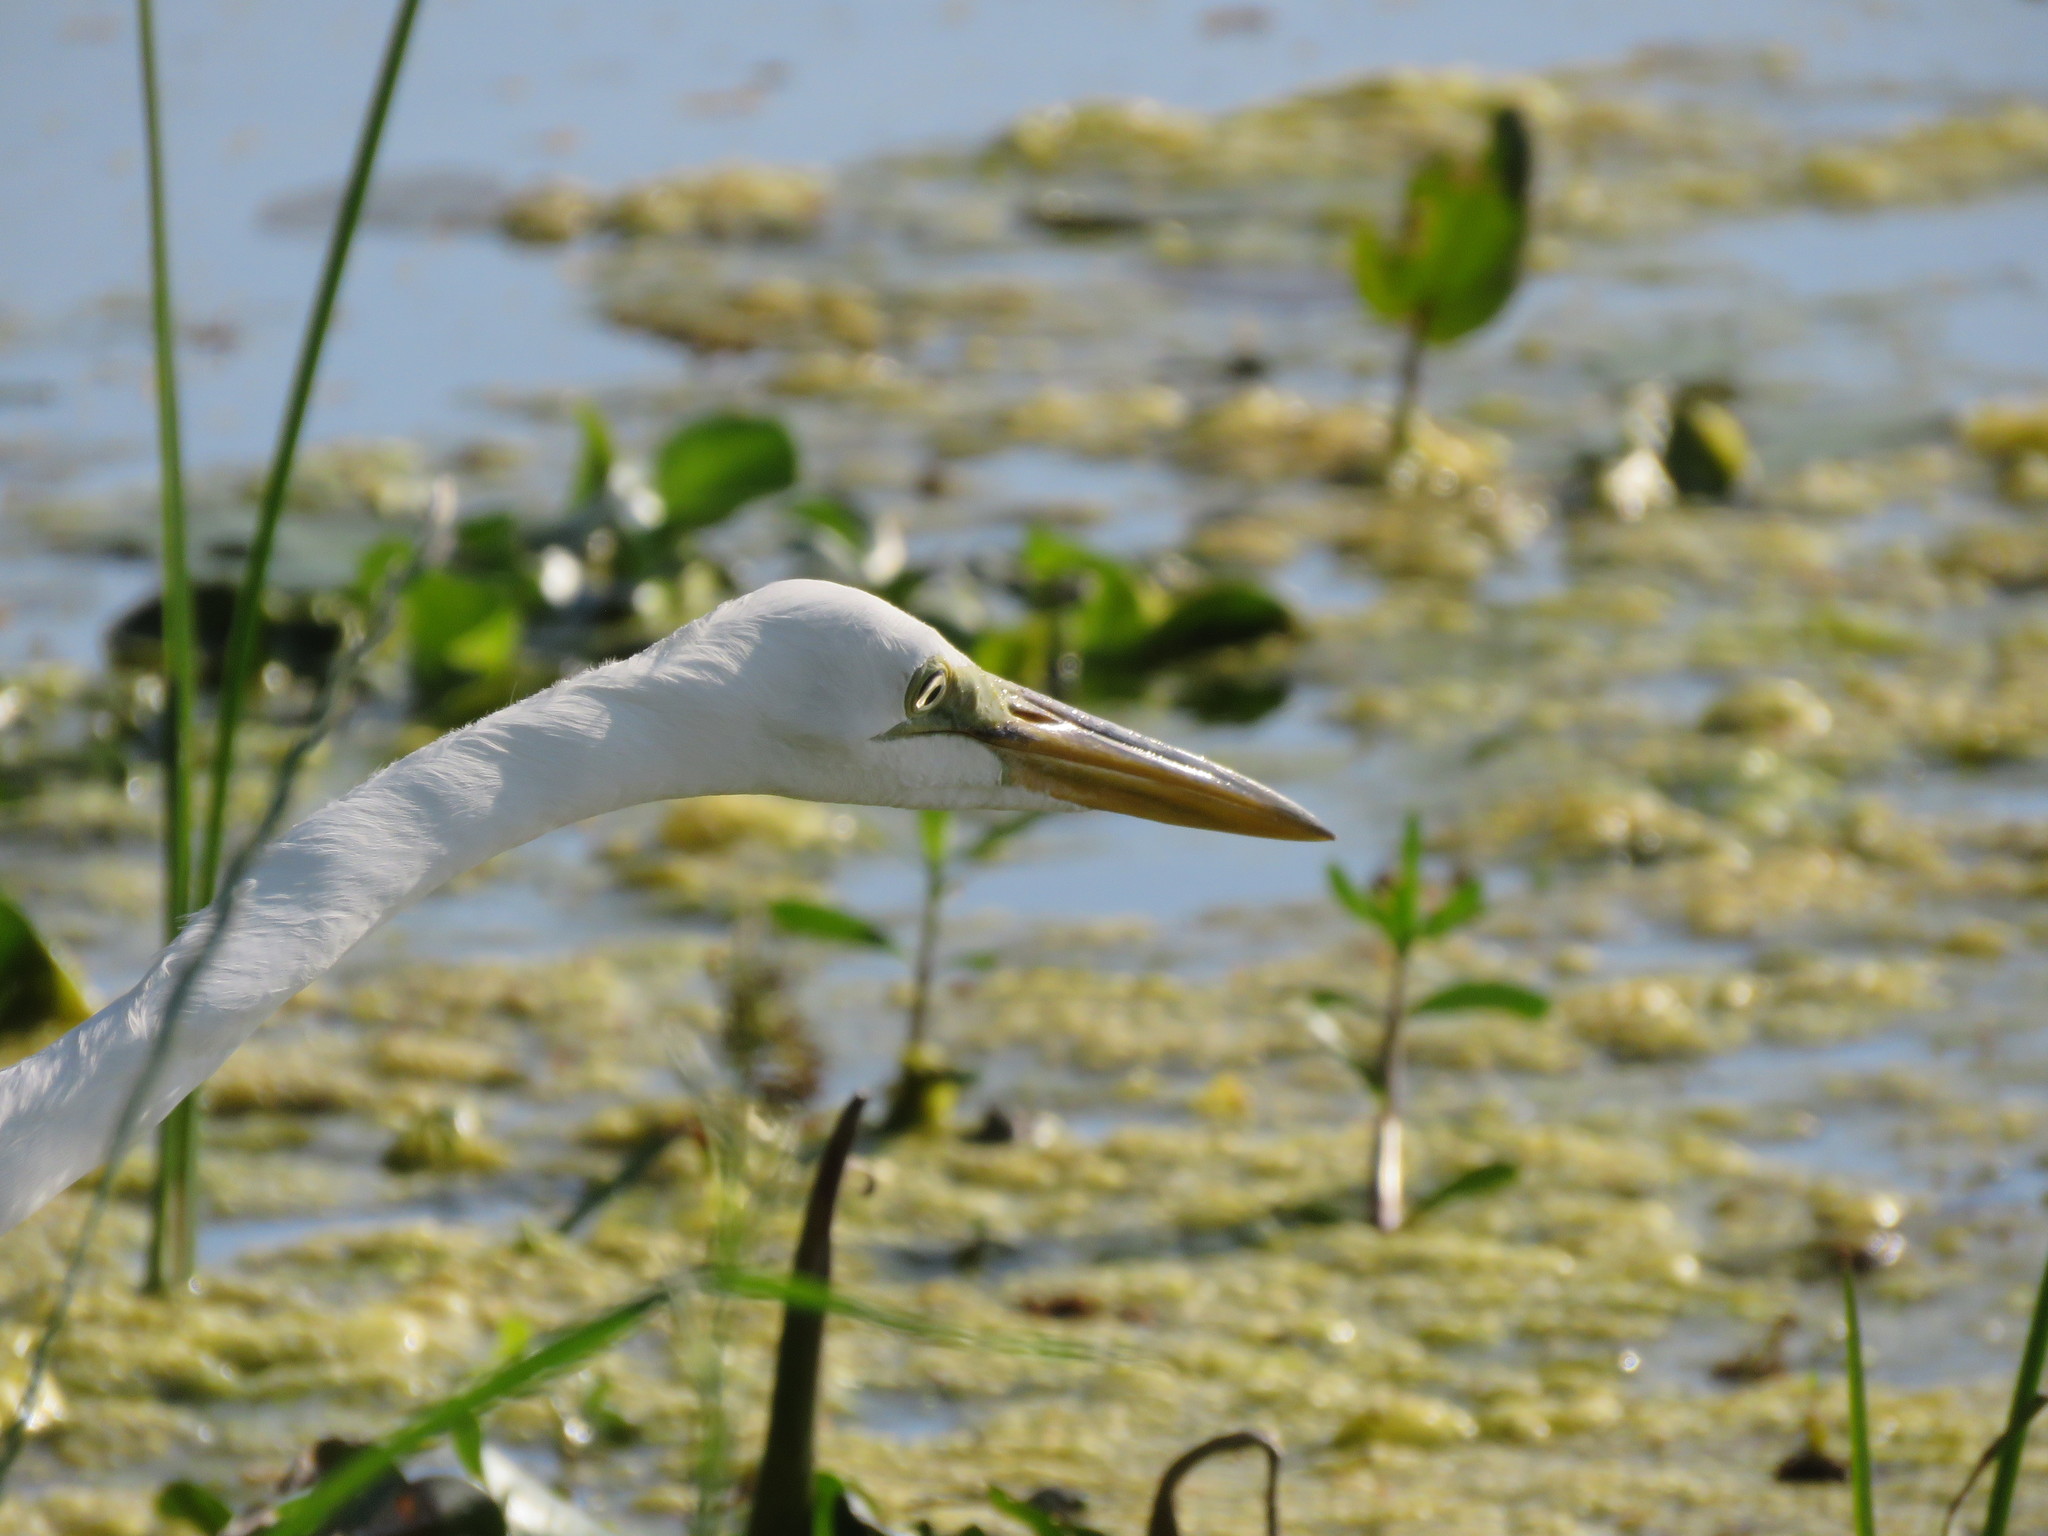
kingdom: Animalia
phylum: Chordata
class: Aves
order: Pelecaniformes
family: Ardeidae
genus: Ardea
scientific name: Ardea alba
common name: Great egret
